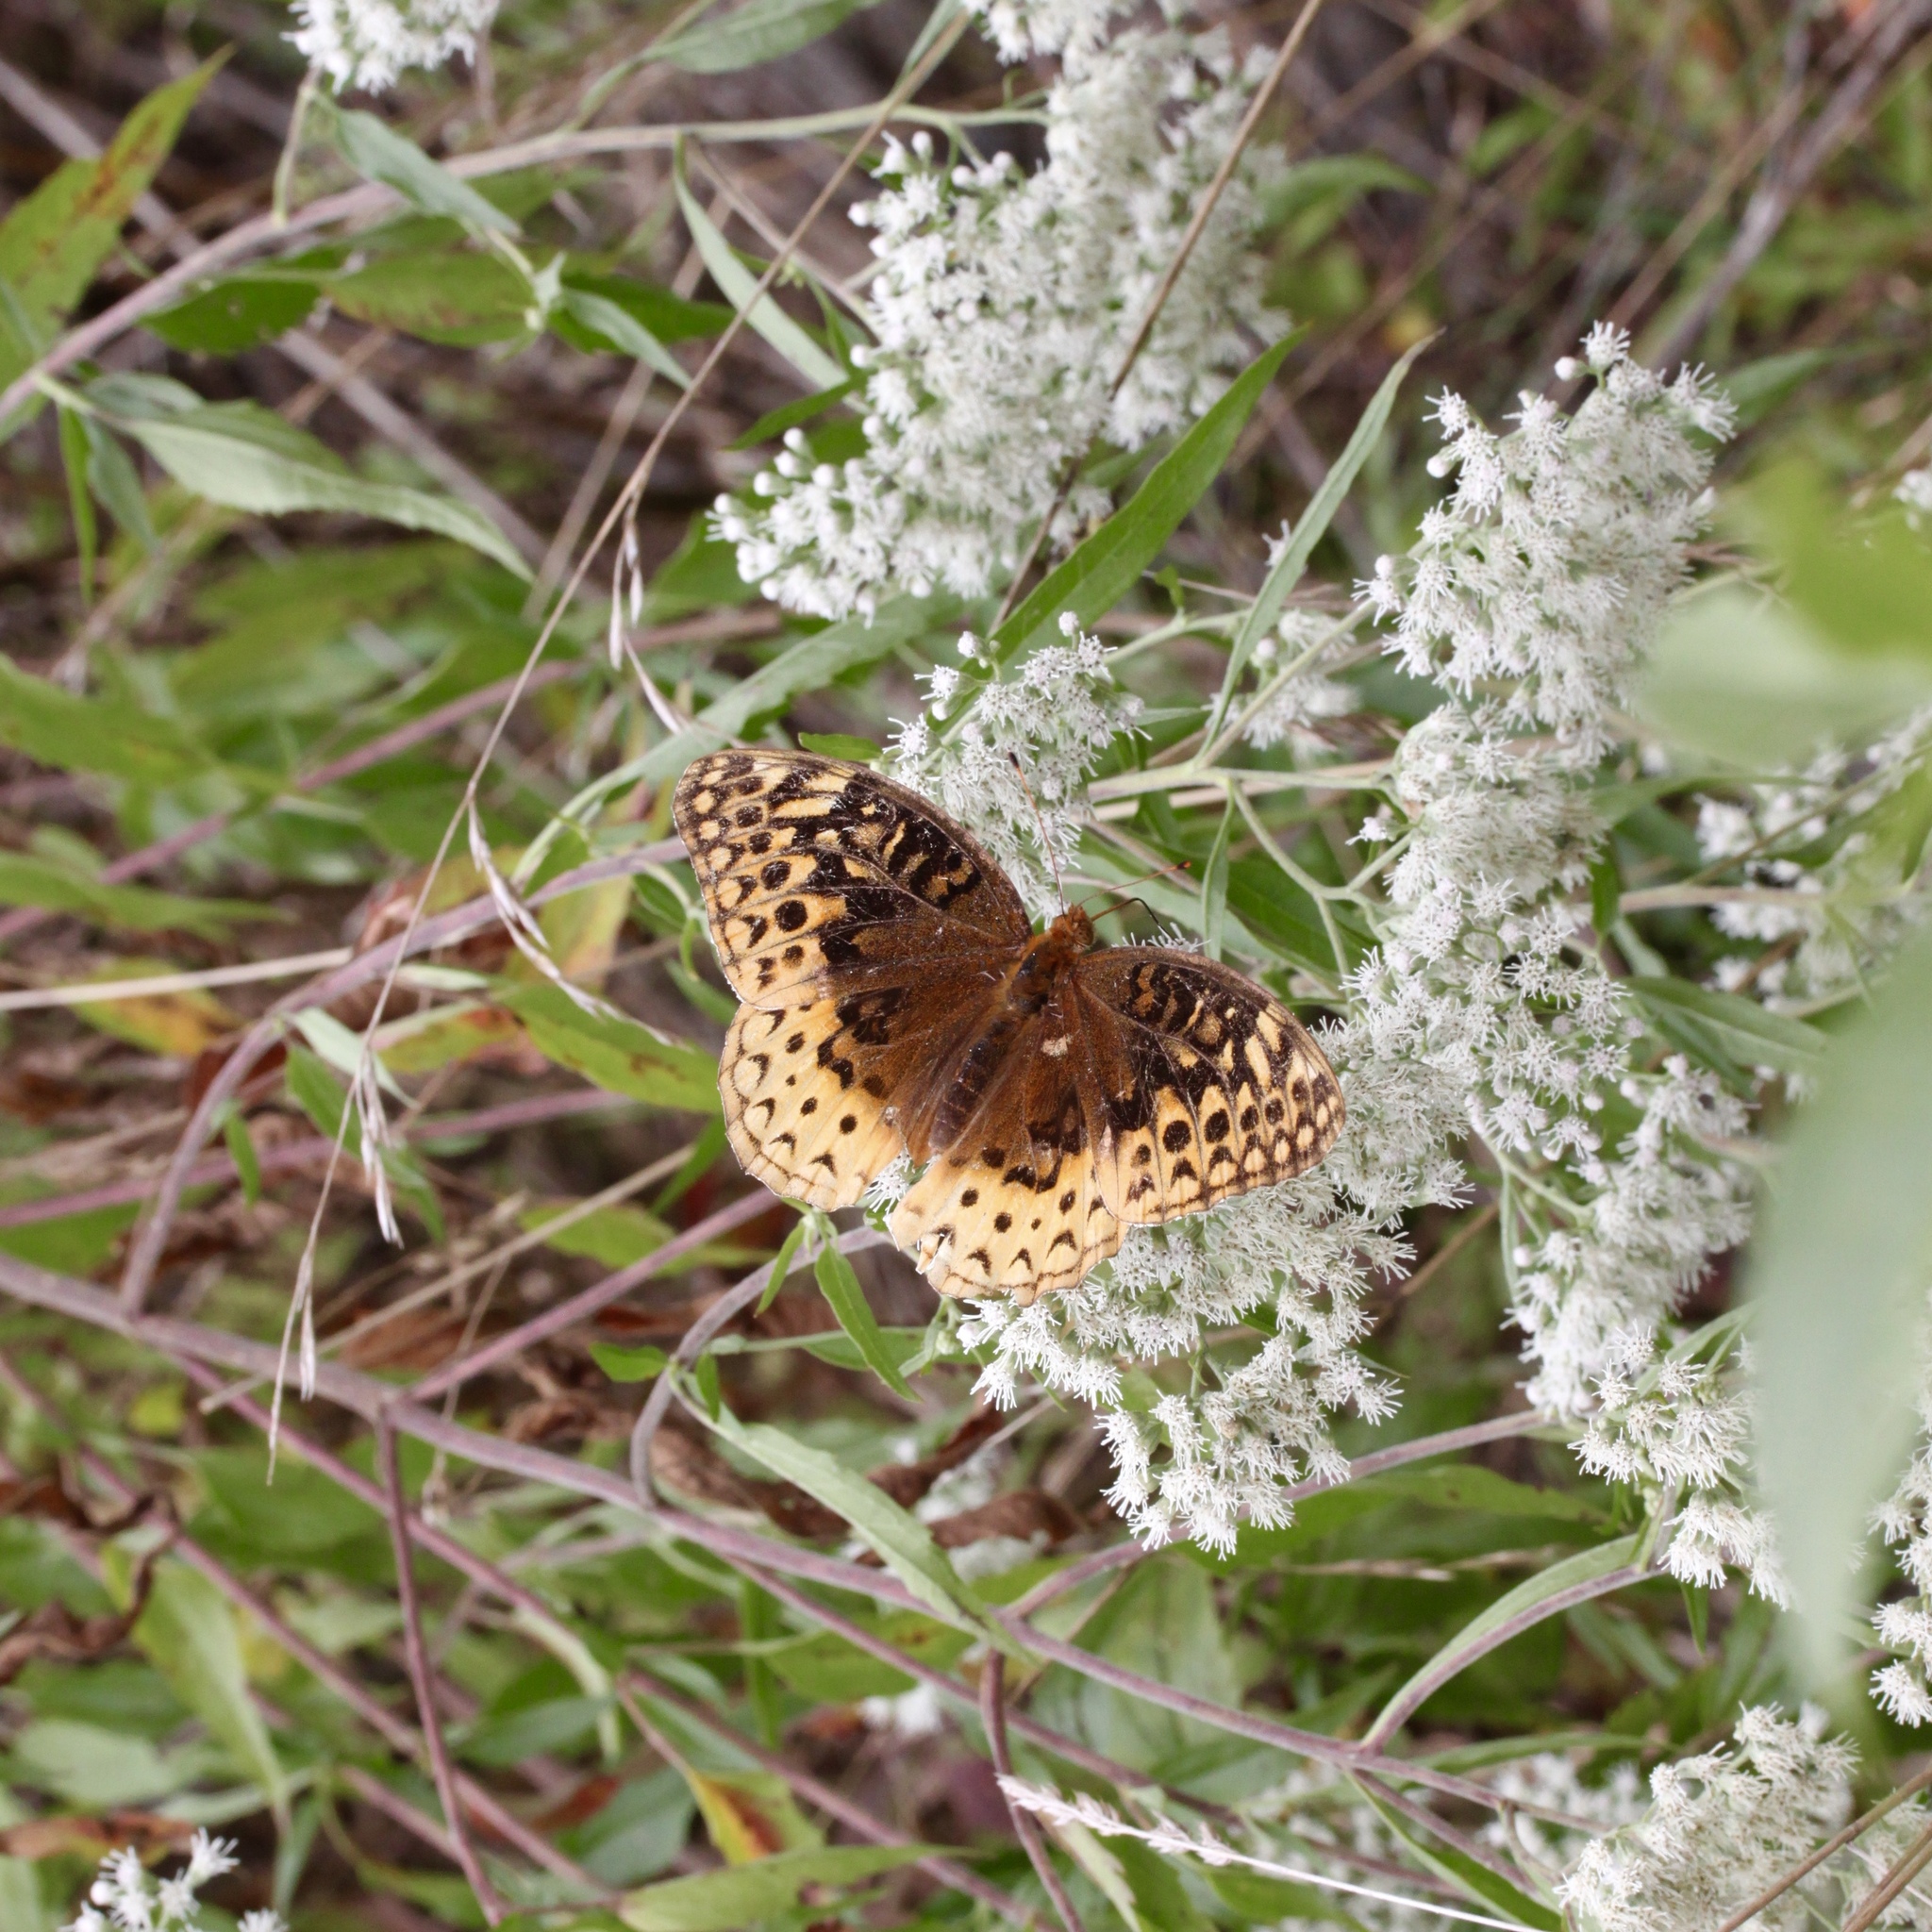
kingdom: Animalia
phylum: Arthropoda
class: Insecta
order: Lepidoptera
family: Nymphalidae
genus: Speyeria
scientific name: Speyeria cybele
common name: Great spangled fritillary
